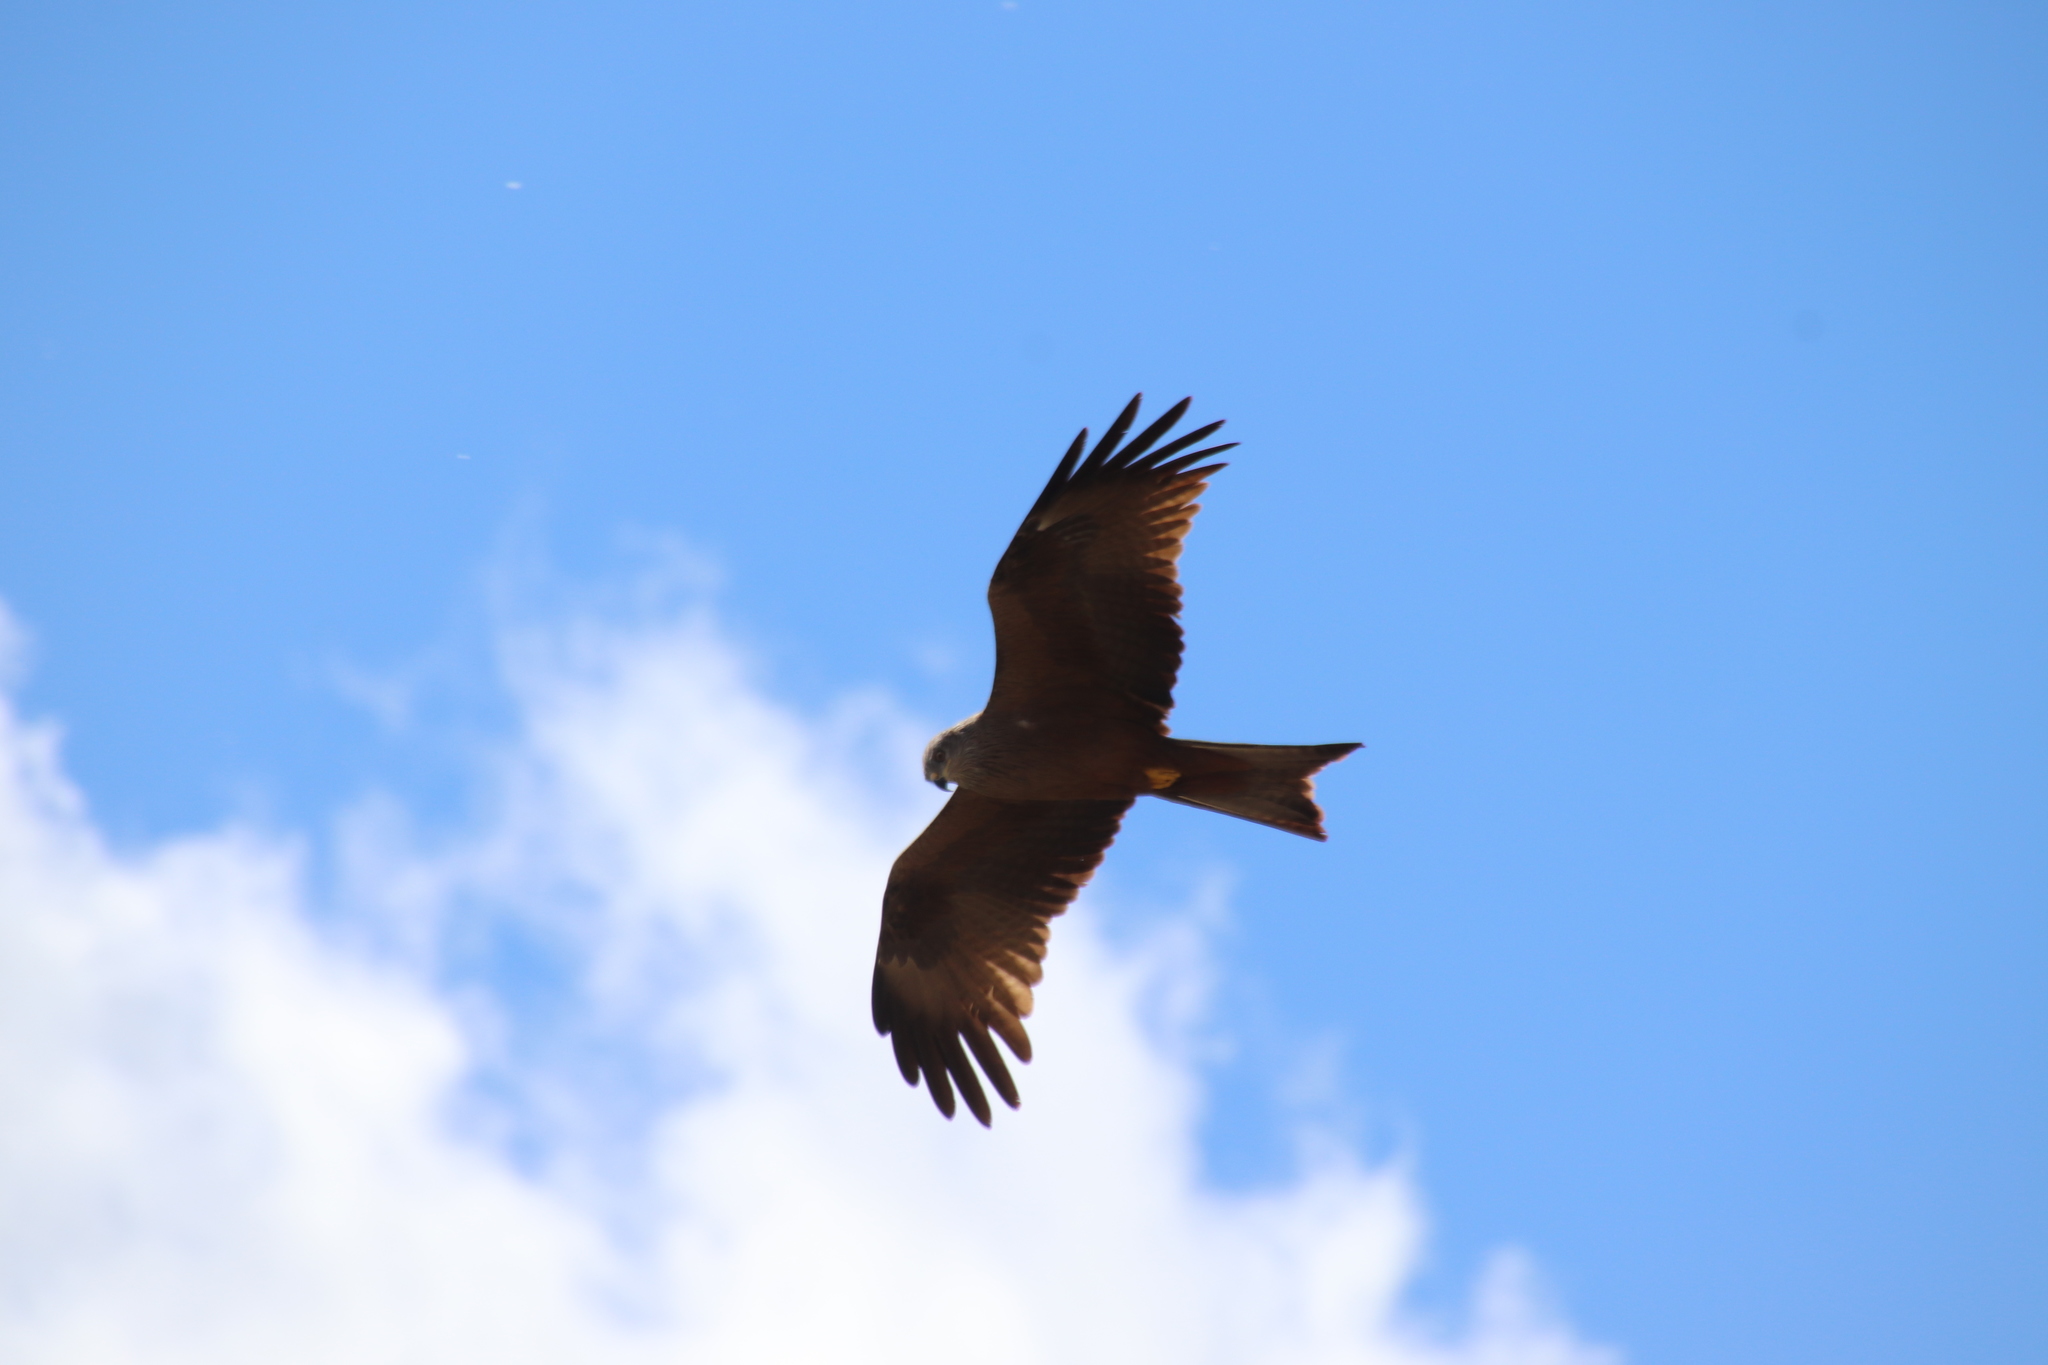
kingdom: Animalia
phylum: Chordata
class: Aves
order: Accipitriformes
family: Accipitridae
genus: Milvus
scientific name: Milvus migrans
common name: Black kite
